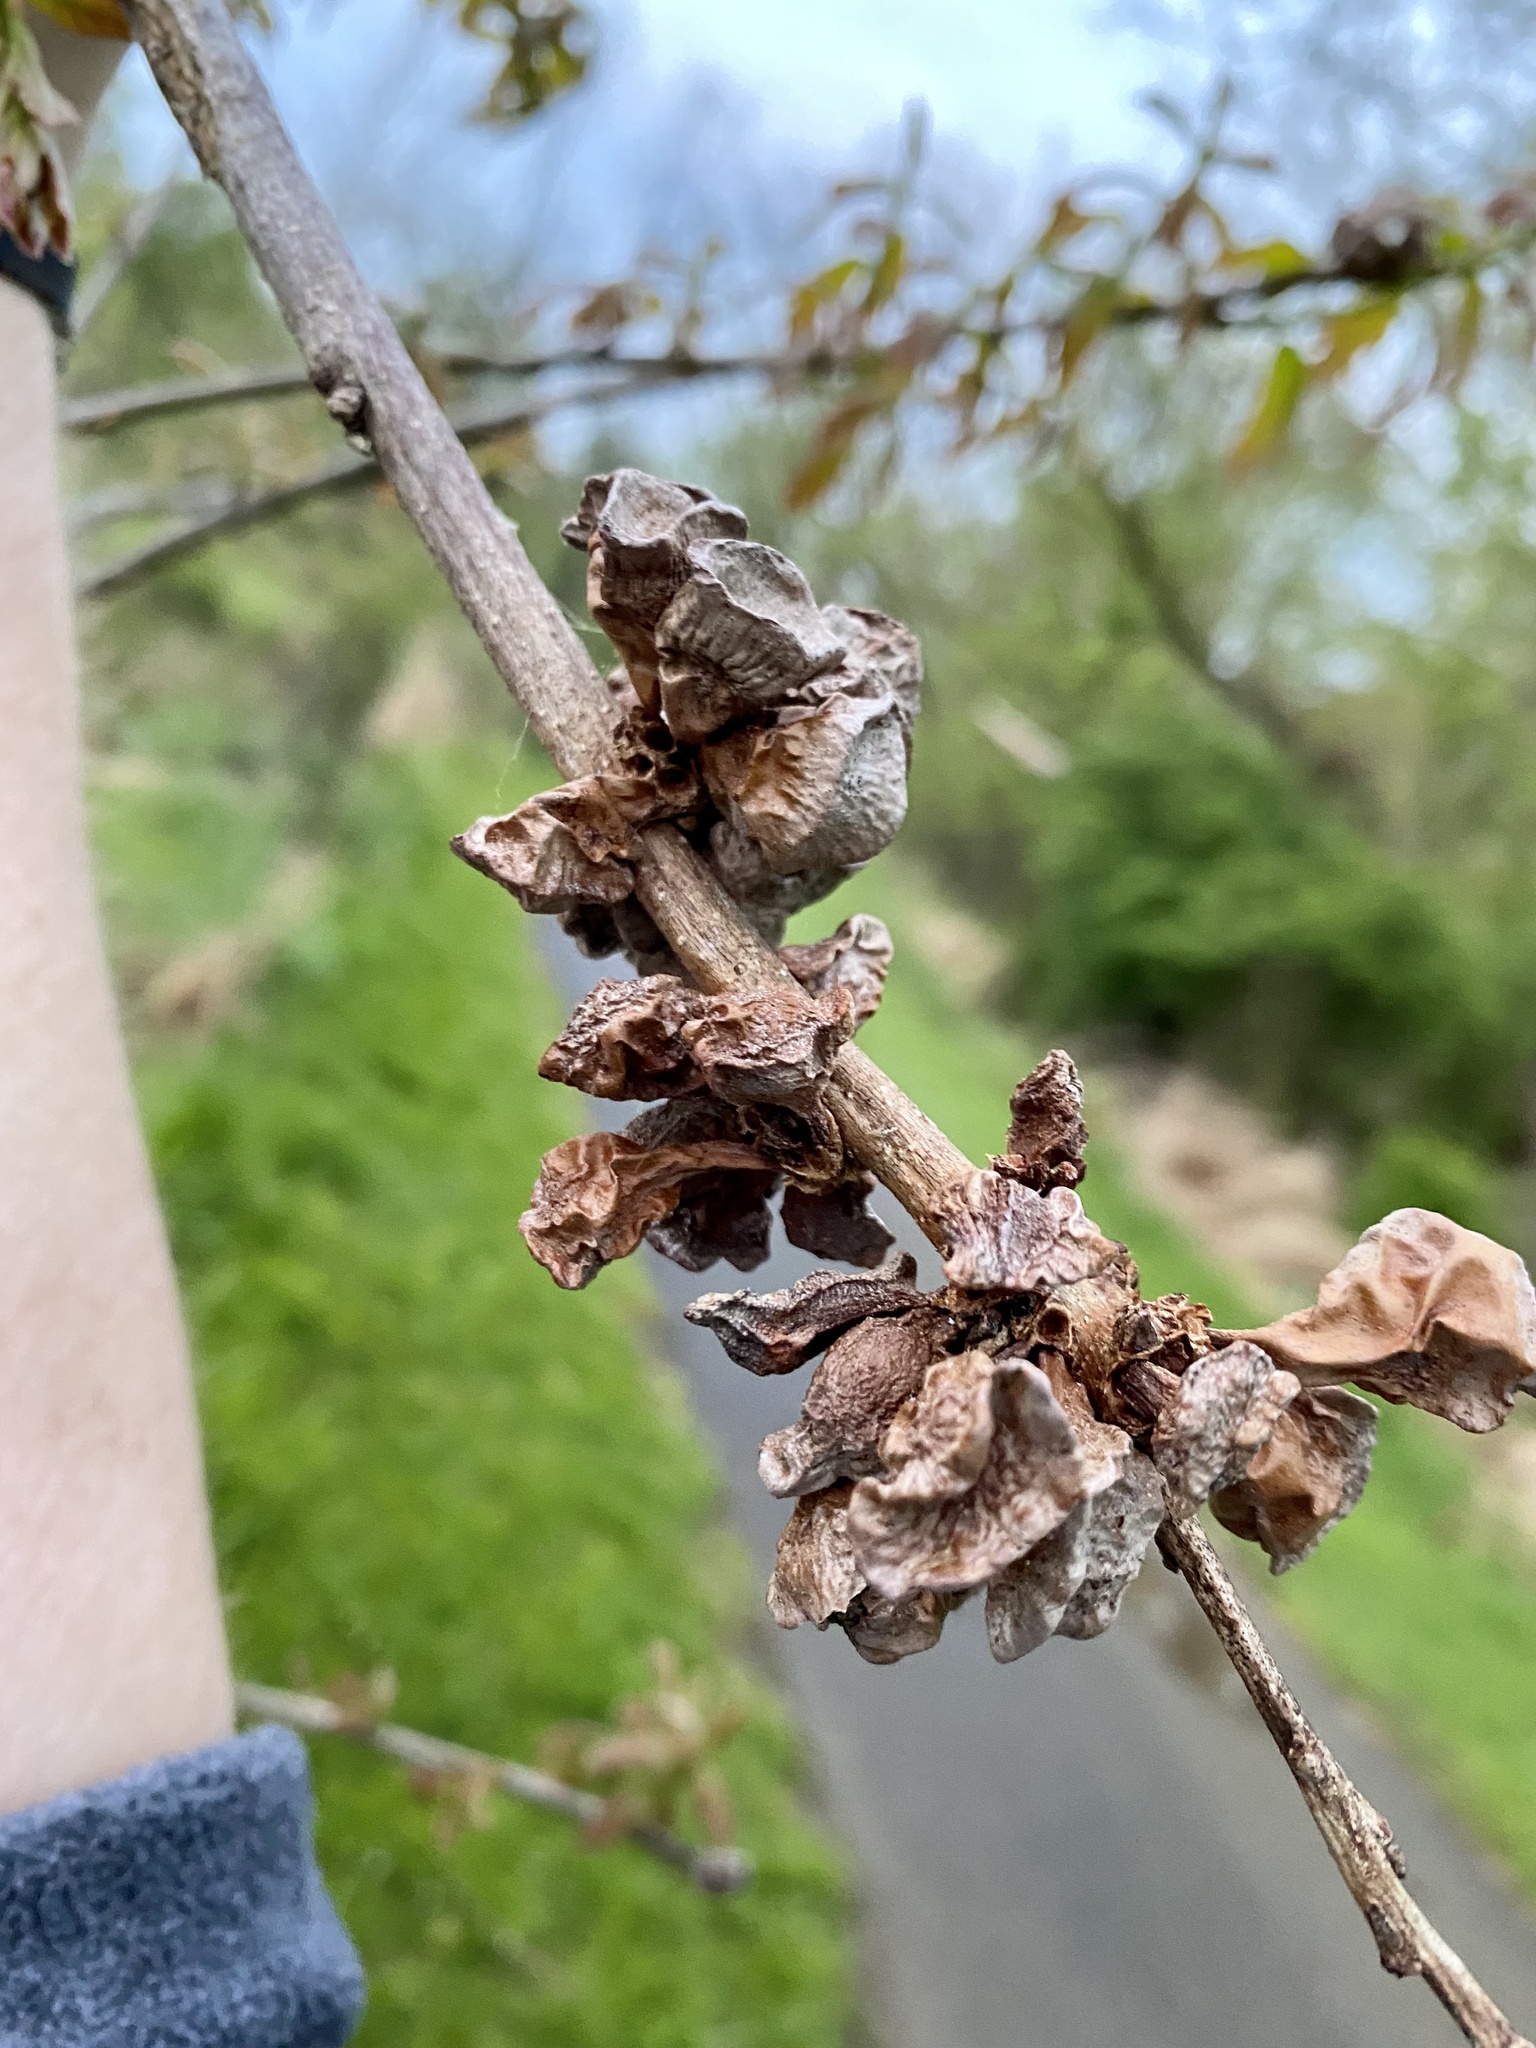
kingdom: Animalia
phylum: Arthropoda
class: Insecta
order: Hymenoptera
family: Cynipidae
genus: Andricus
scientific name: Andricus
